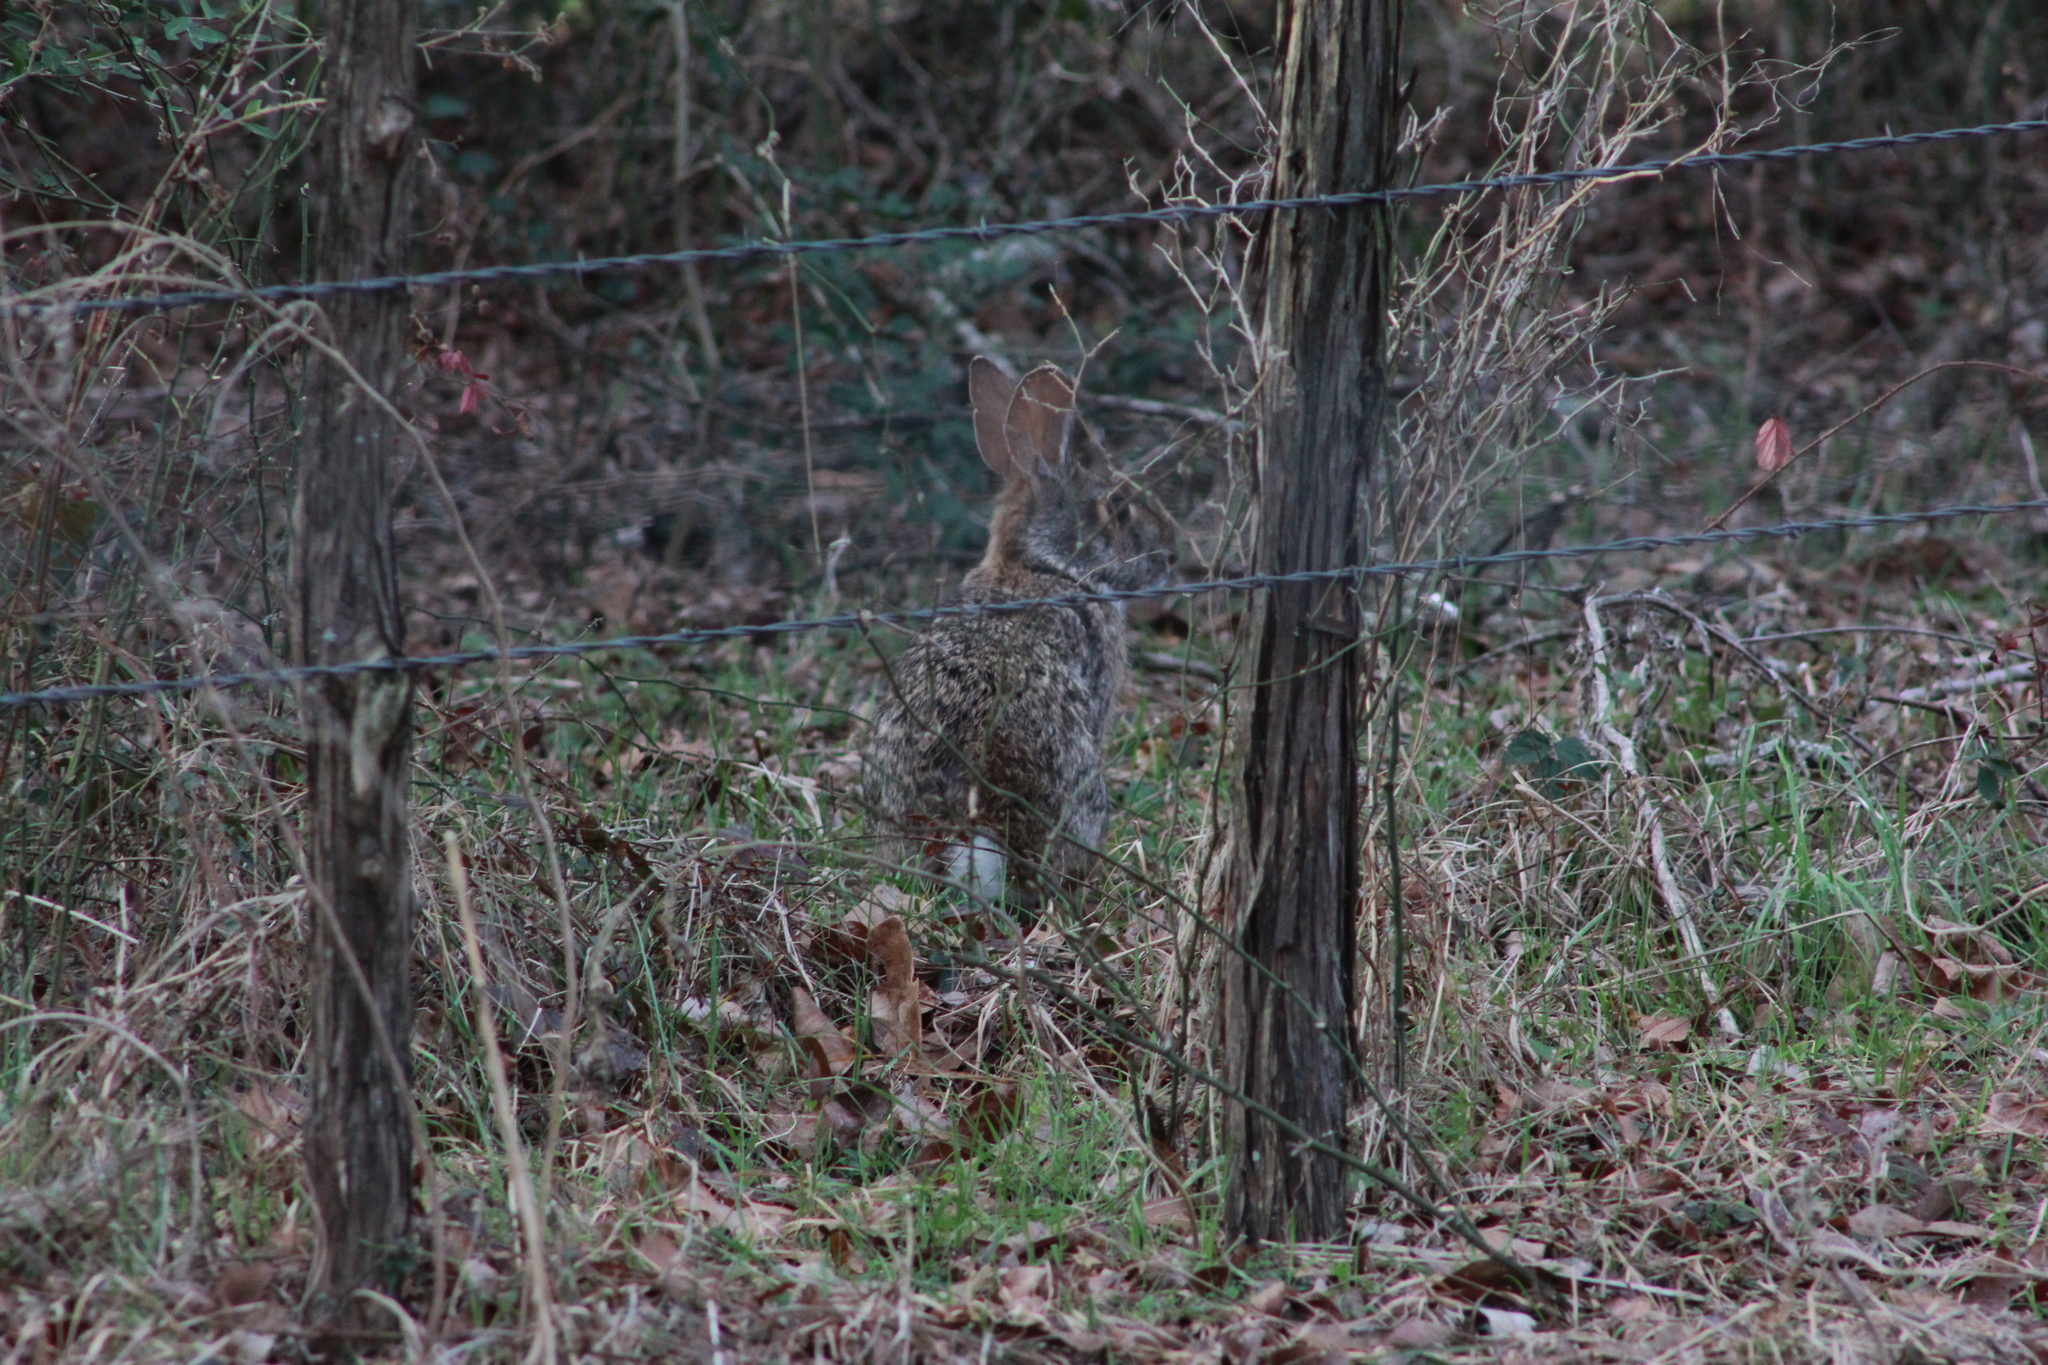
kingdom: Animalia
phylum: Chordata
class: Mammalia
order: Lagomorpha
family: Leporidae
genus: Sylvilagus
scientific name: Sylvilagus floridanus
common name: Eastern cottontail
